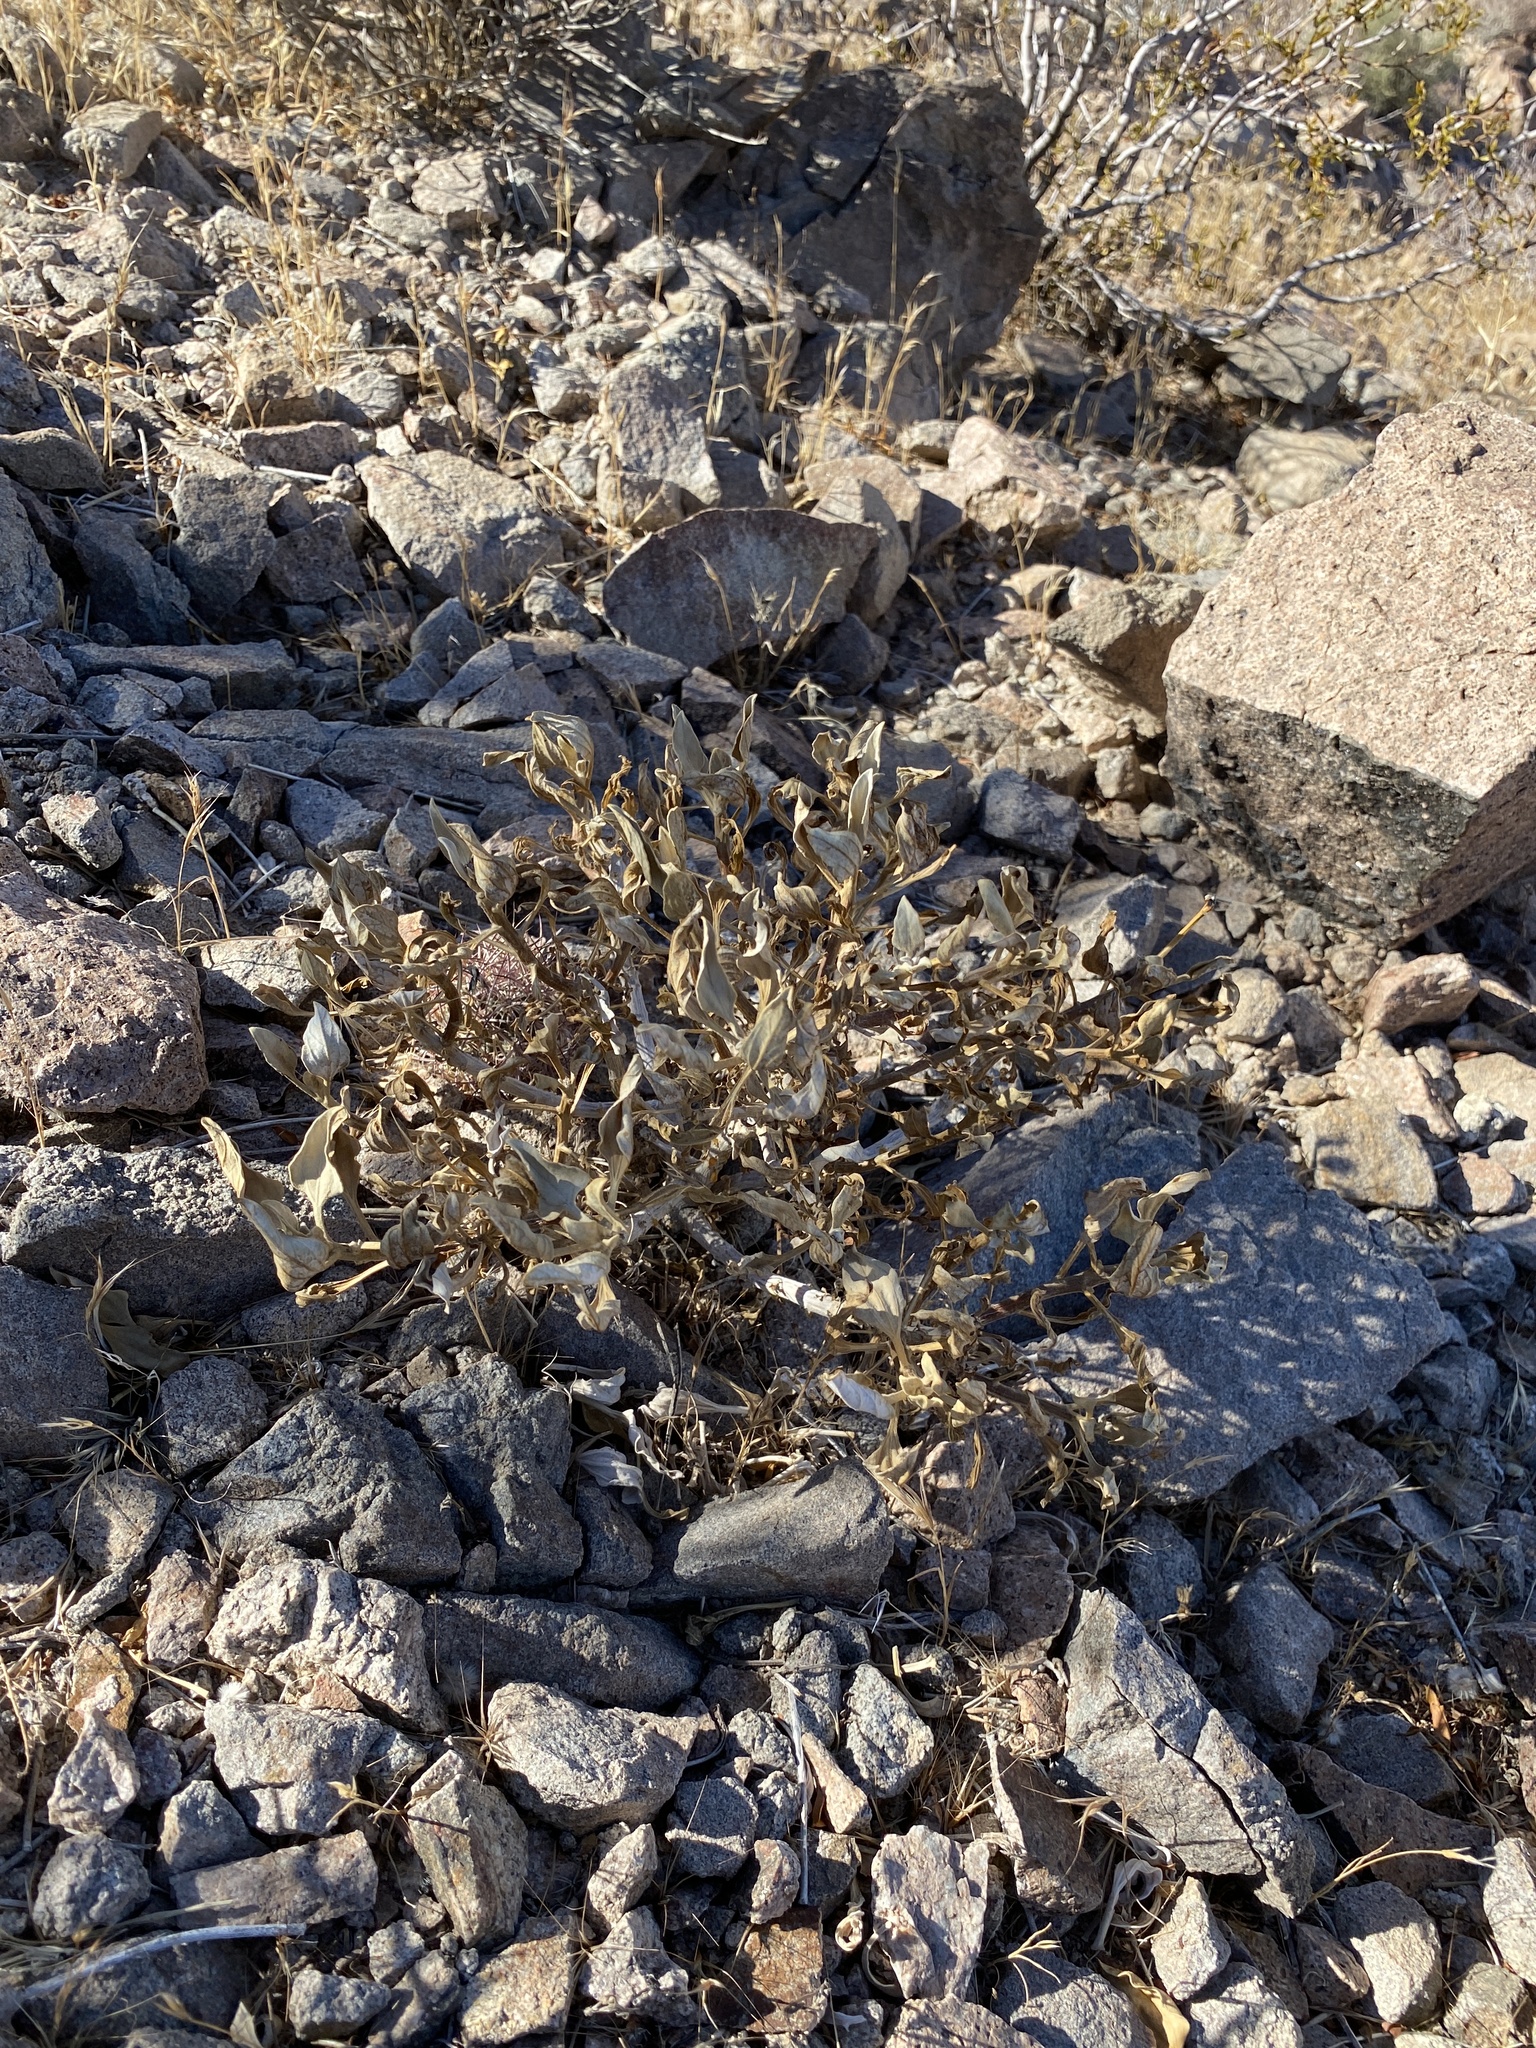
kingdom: Plantae
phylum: Tracheophyta
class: Magnoliopsida
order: Asterales
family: Asteraceae
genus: Ambrosia
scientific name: Ambrosia deltoidea
